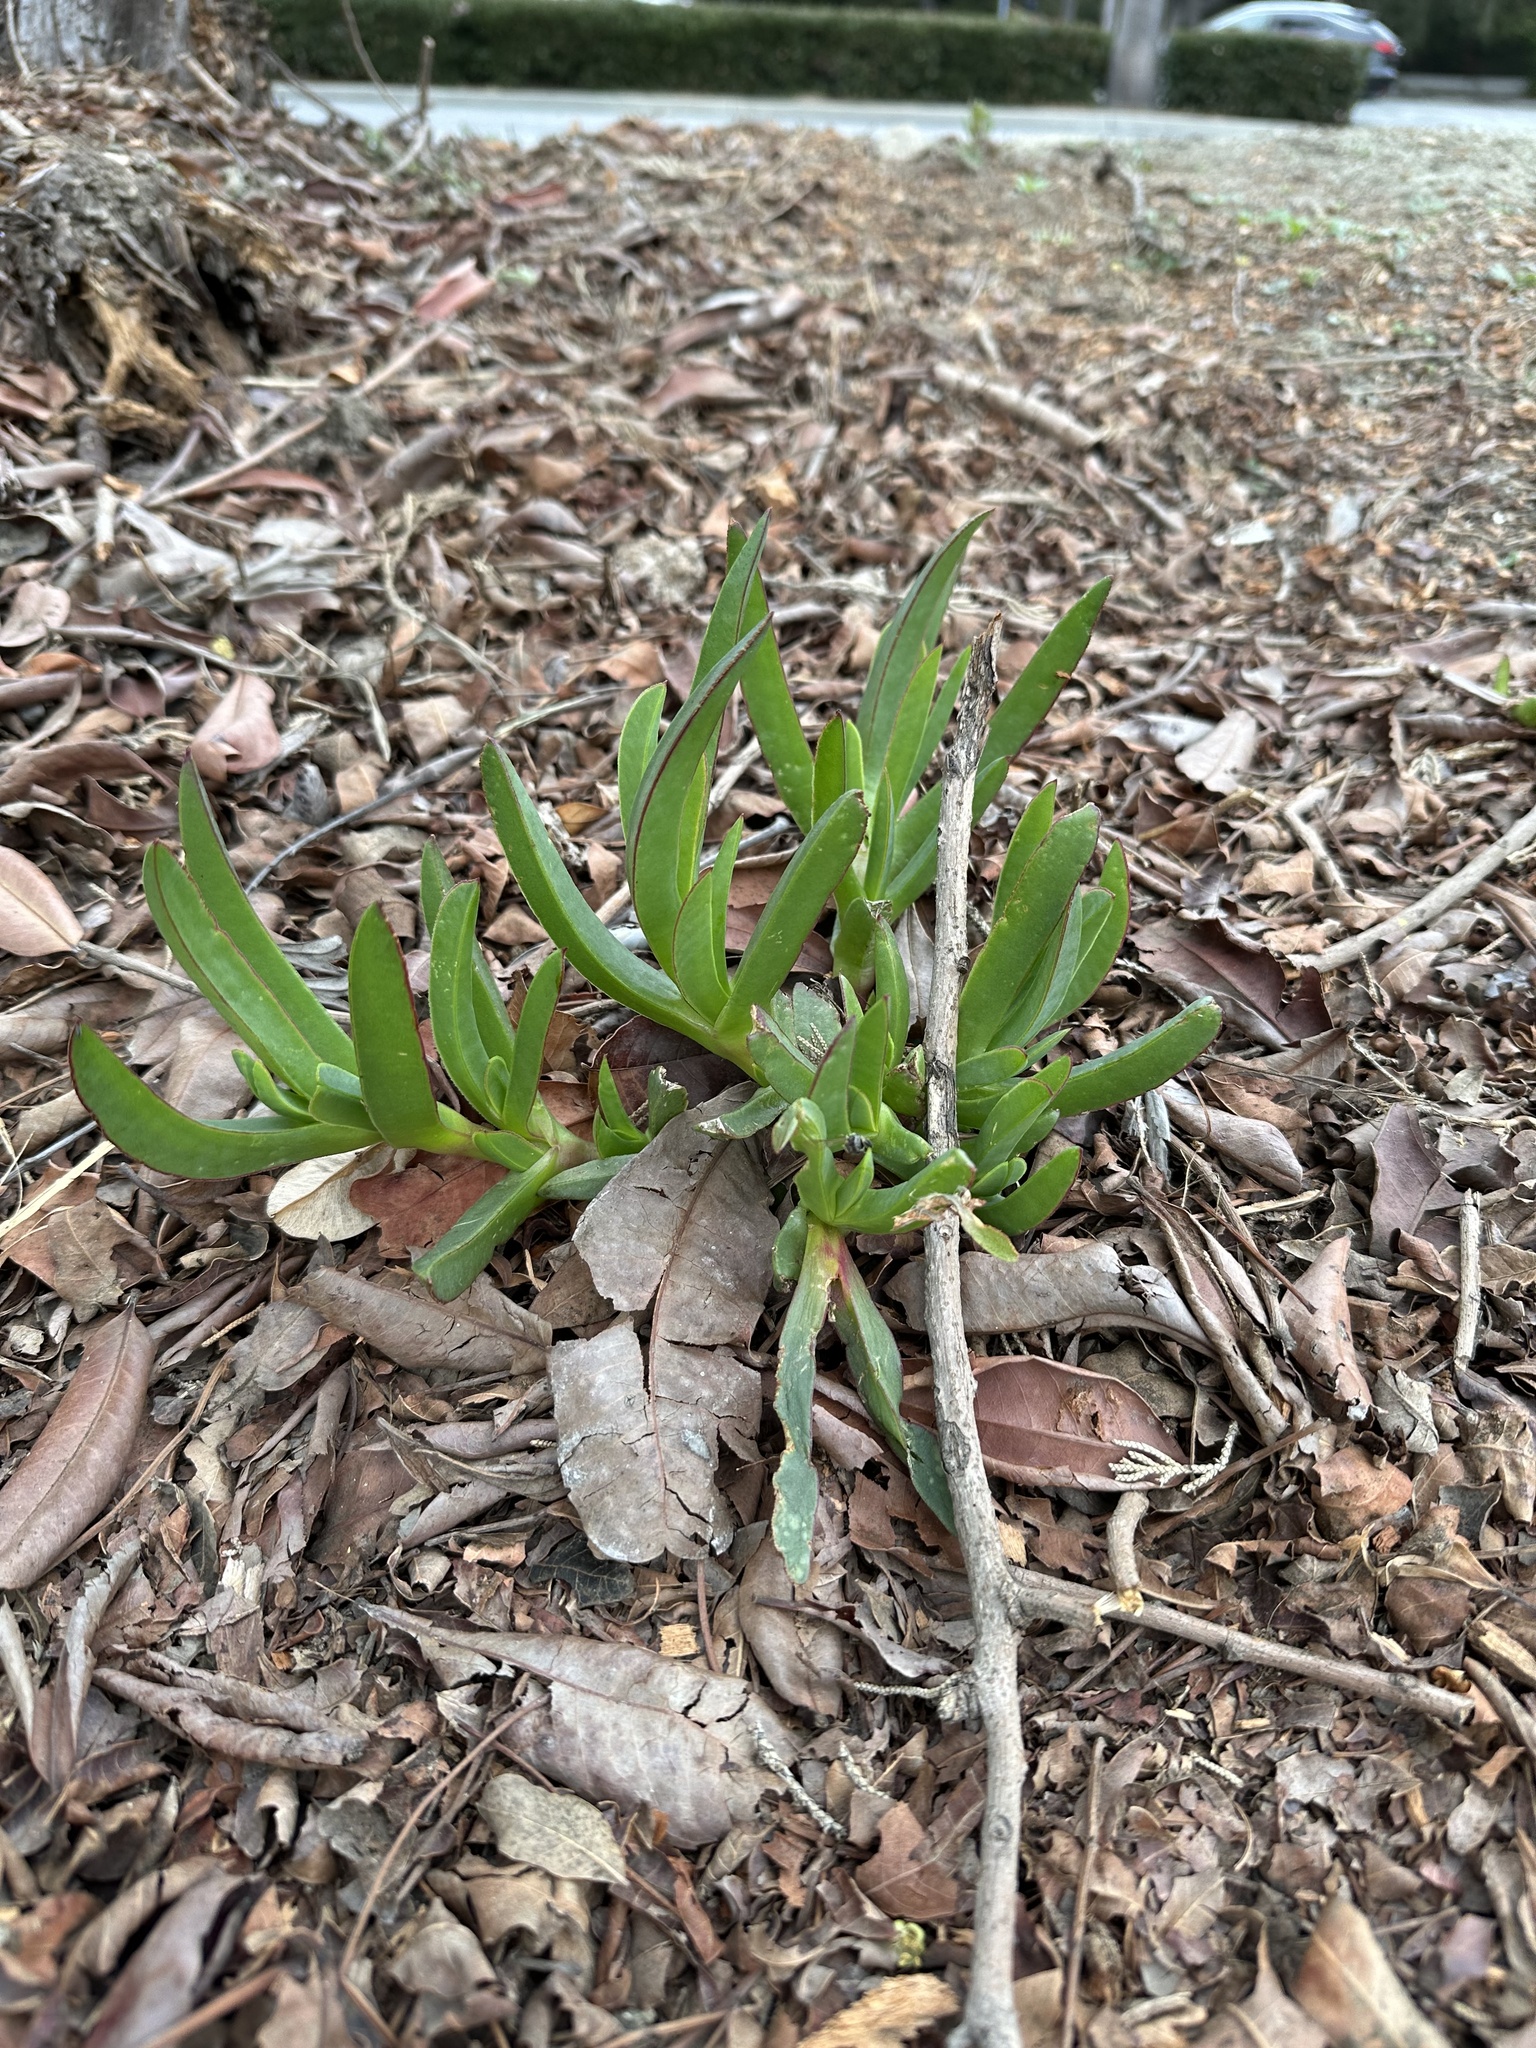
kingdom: Plantae
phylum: Tracheophyta
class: Magnoliopsida
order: Caryophyllales
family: Aizoaceae
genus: Carpobrotus
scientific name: Carpobrotus chilensis
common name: Sea fig
